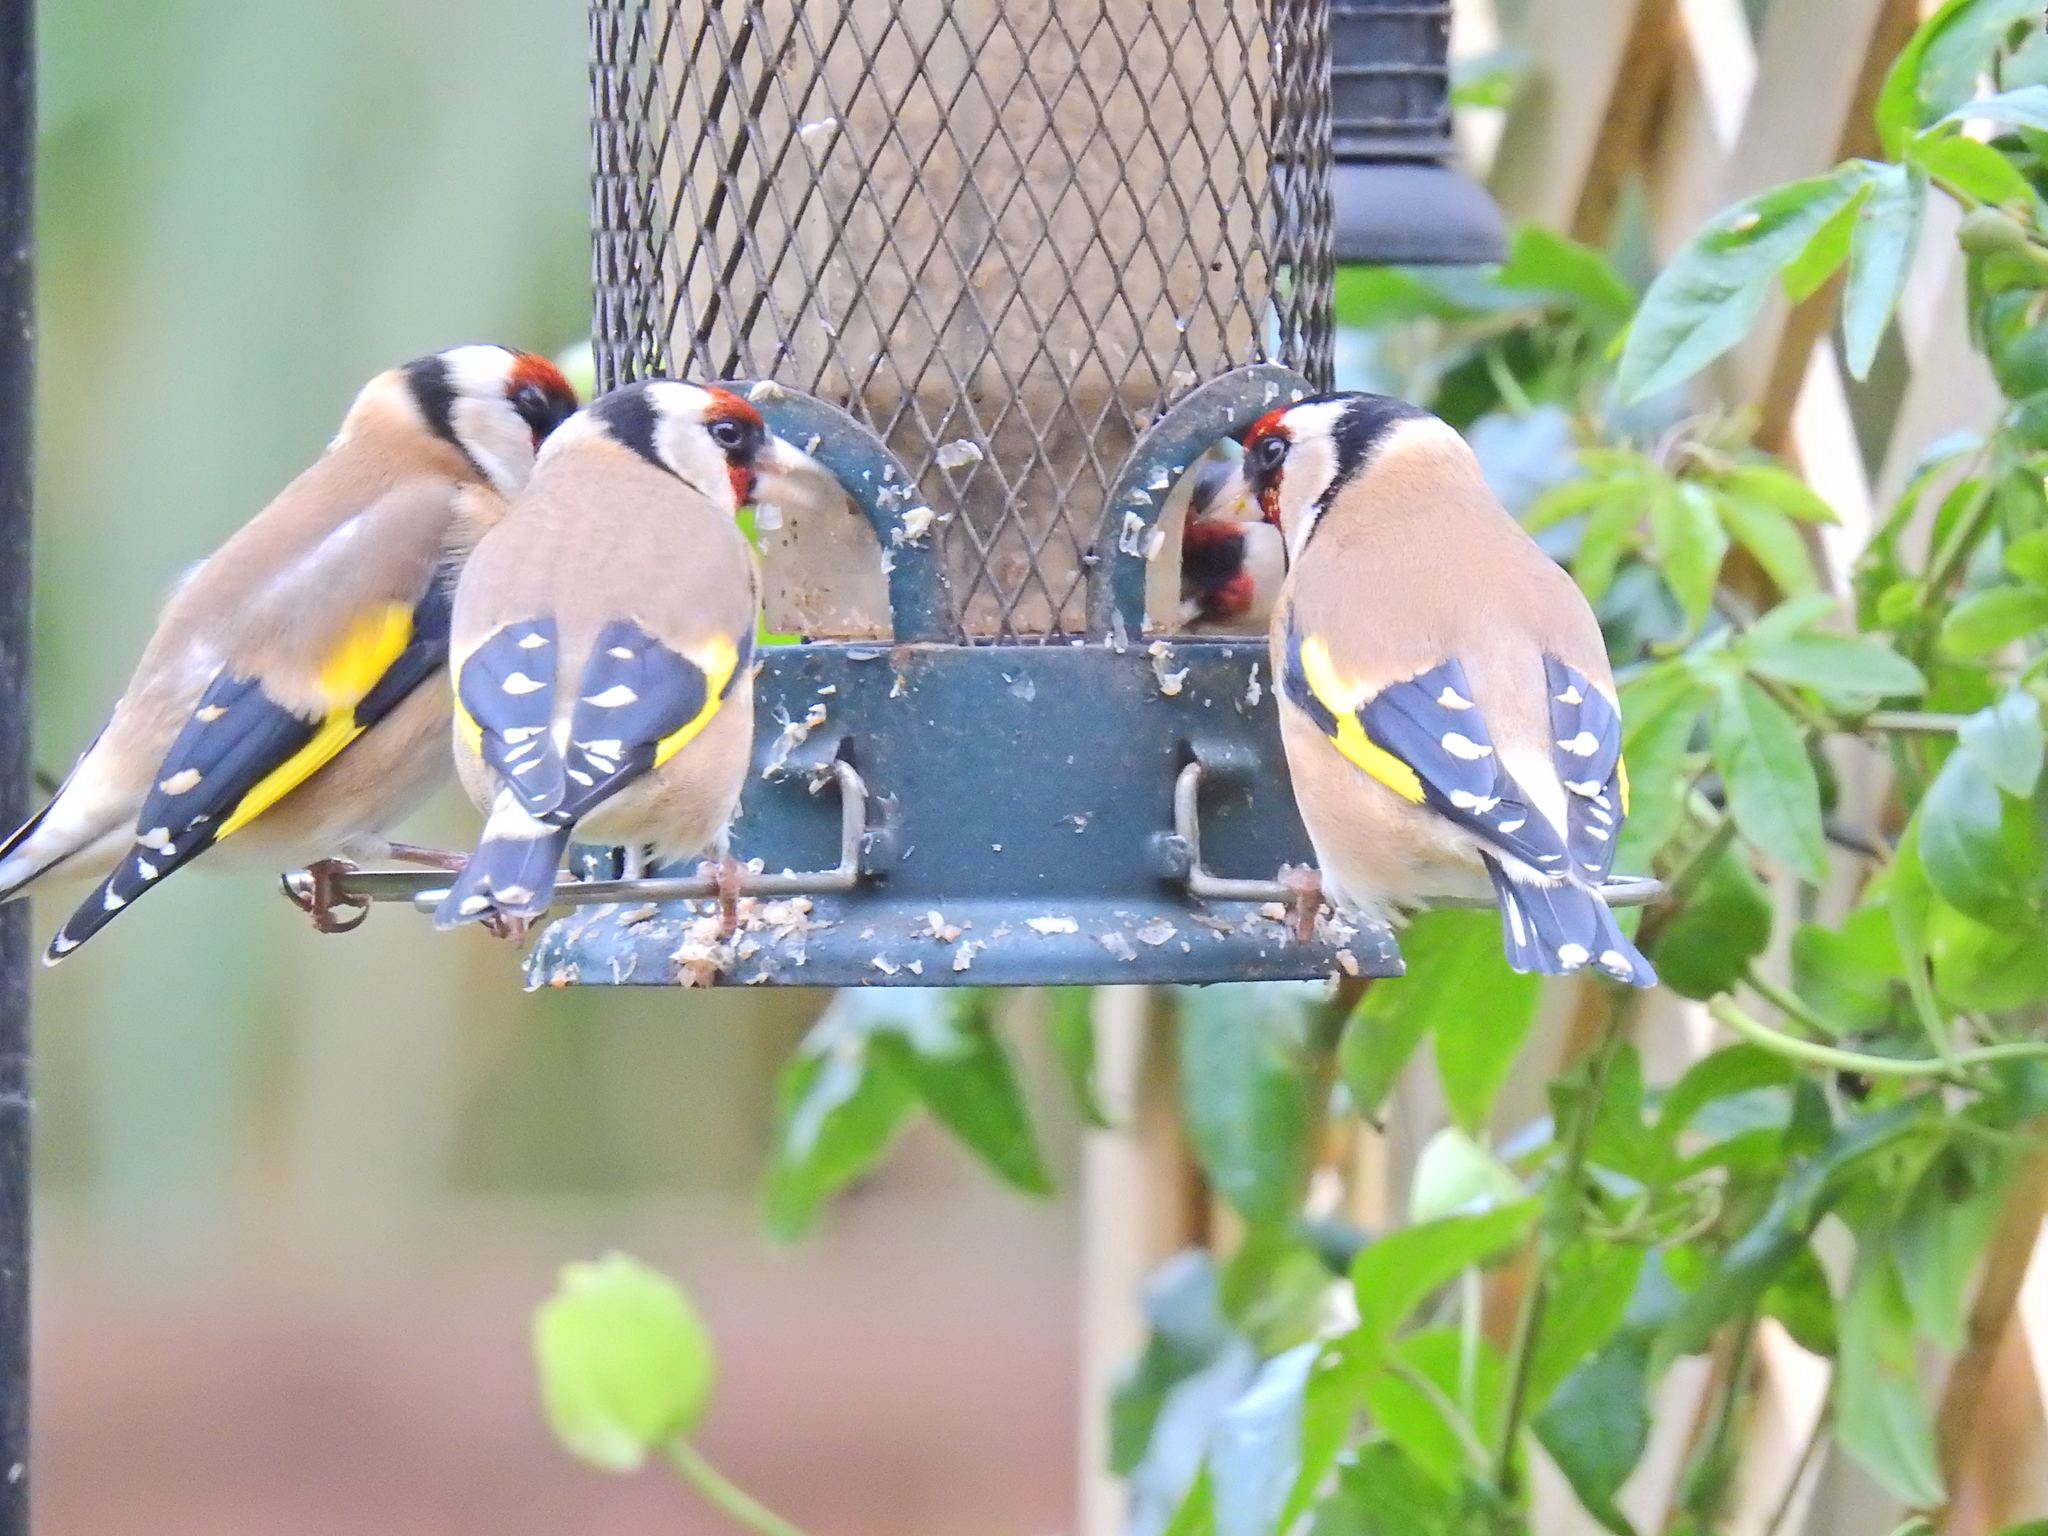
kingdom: Animalia
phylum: Chordata
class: Aves
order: Passeriformes
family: Fringillidae
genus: Carduelis
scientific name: Carduelis carduelis
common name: European goldfinch
